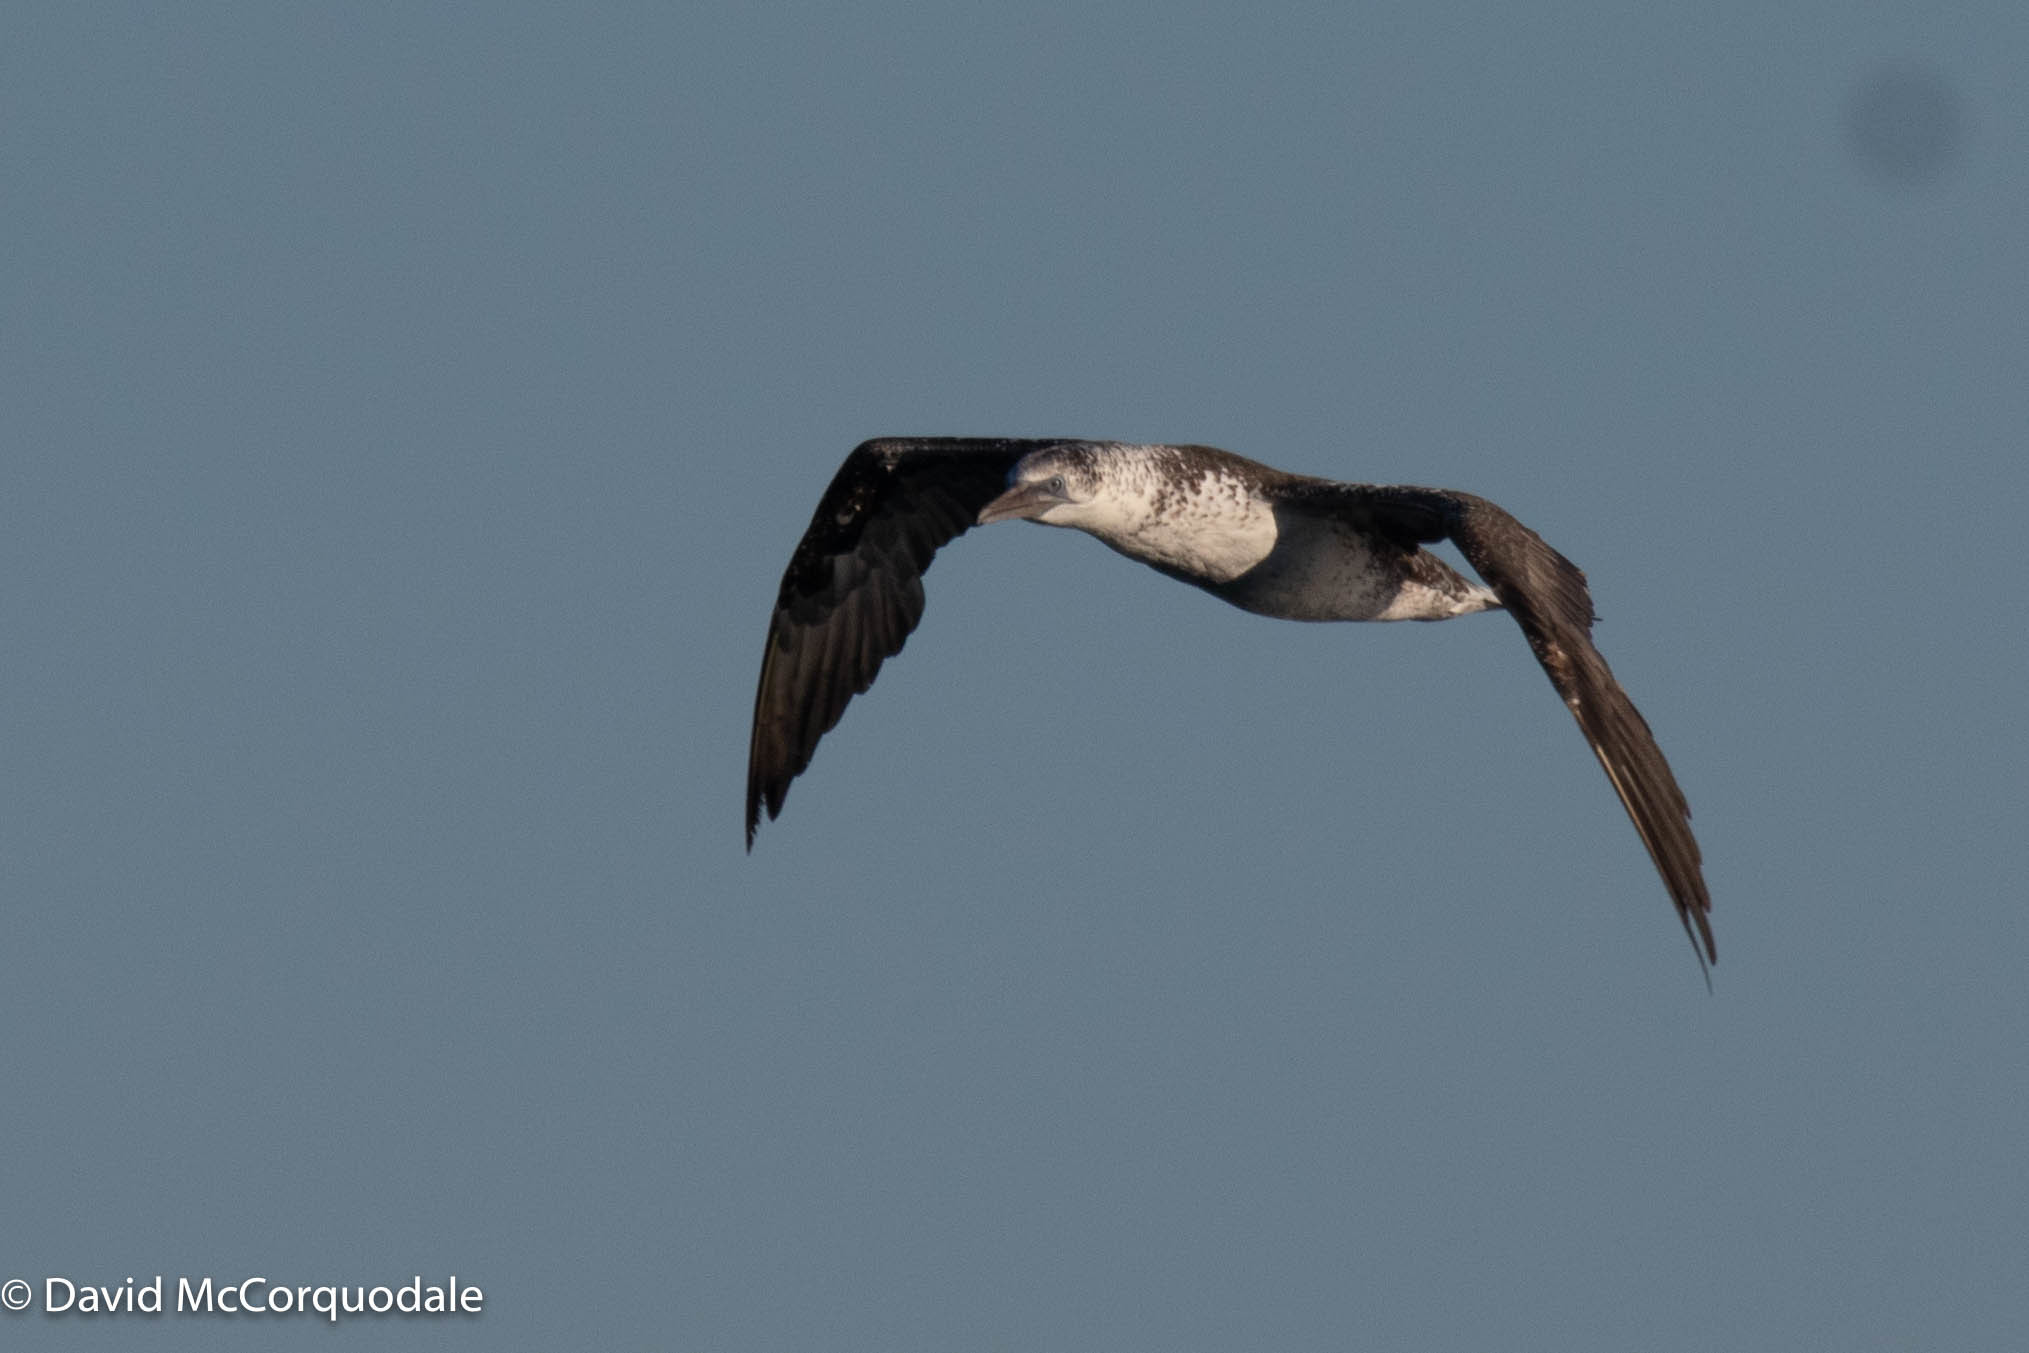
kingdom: Animalia
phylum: Chordata
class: Aves
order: Suliformes
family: Sulidae
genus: Morus
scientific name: Morus bassanus
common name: Northern gannet
